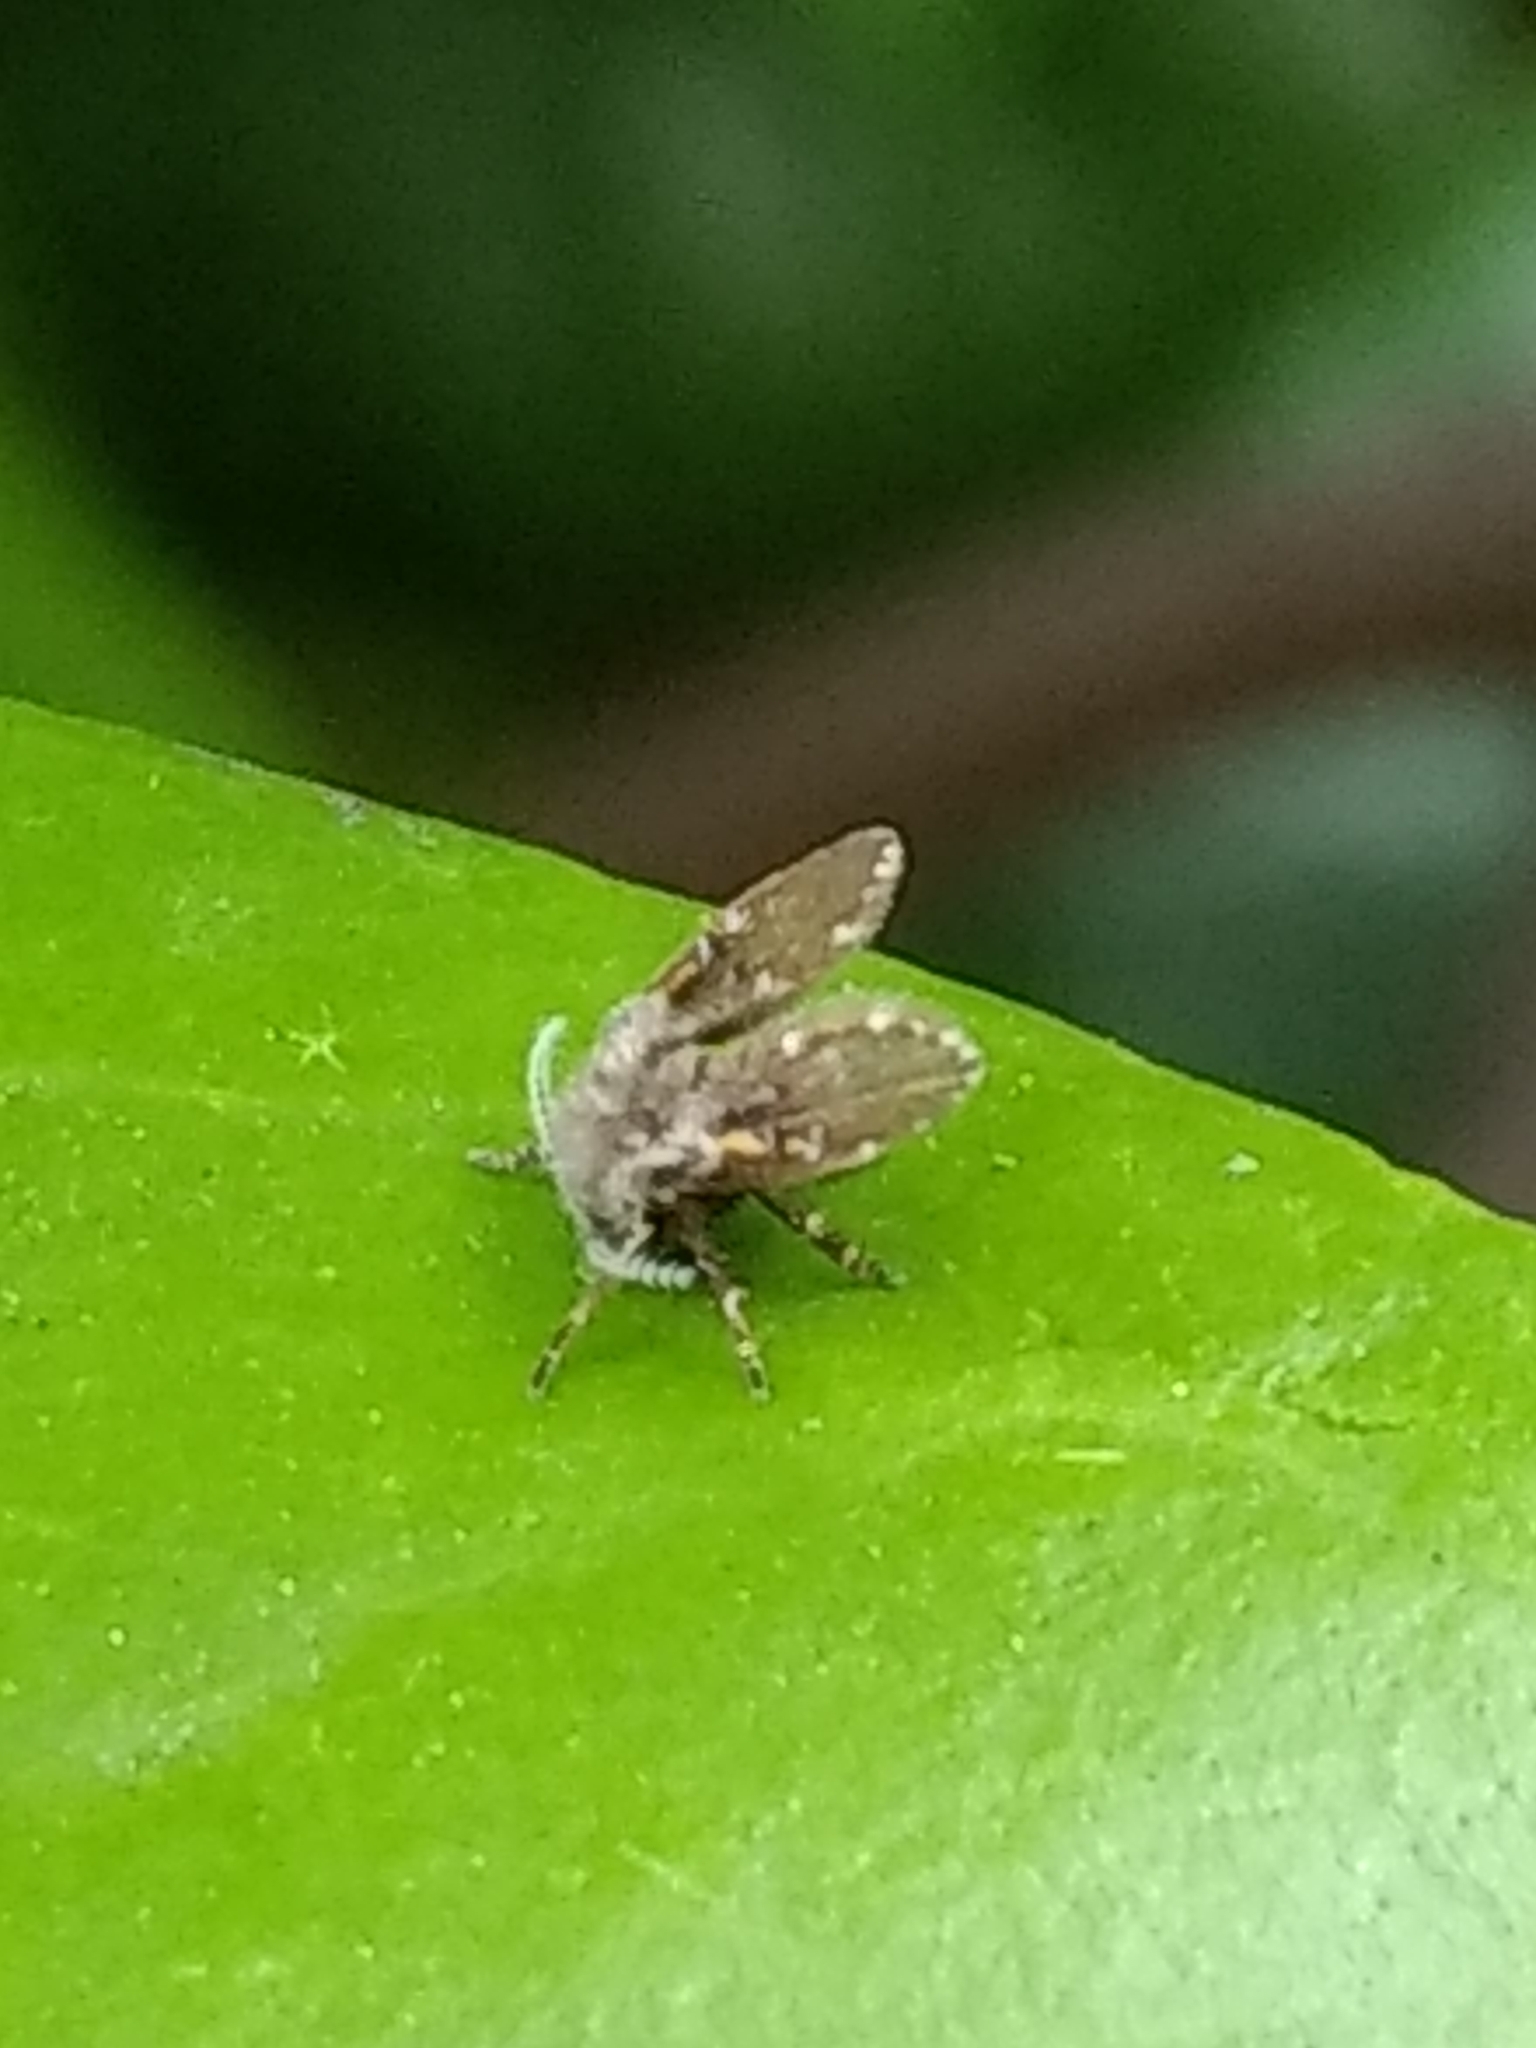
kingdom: Animalia
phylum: Arthropoda
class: Insecta
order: Diptera
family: Psychodidae
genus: Clogmia
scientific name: Clogmia albipunctatus
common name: White-spotted moth fly
